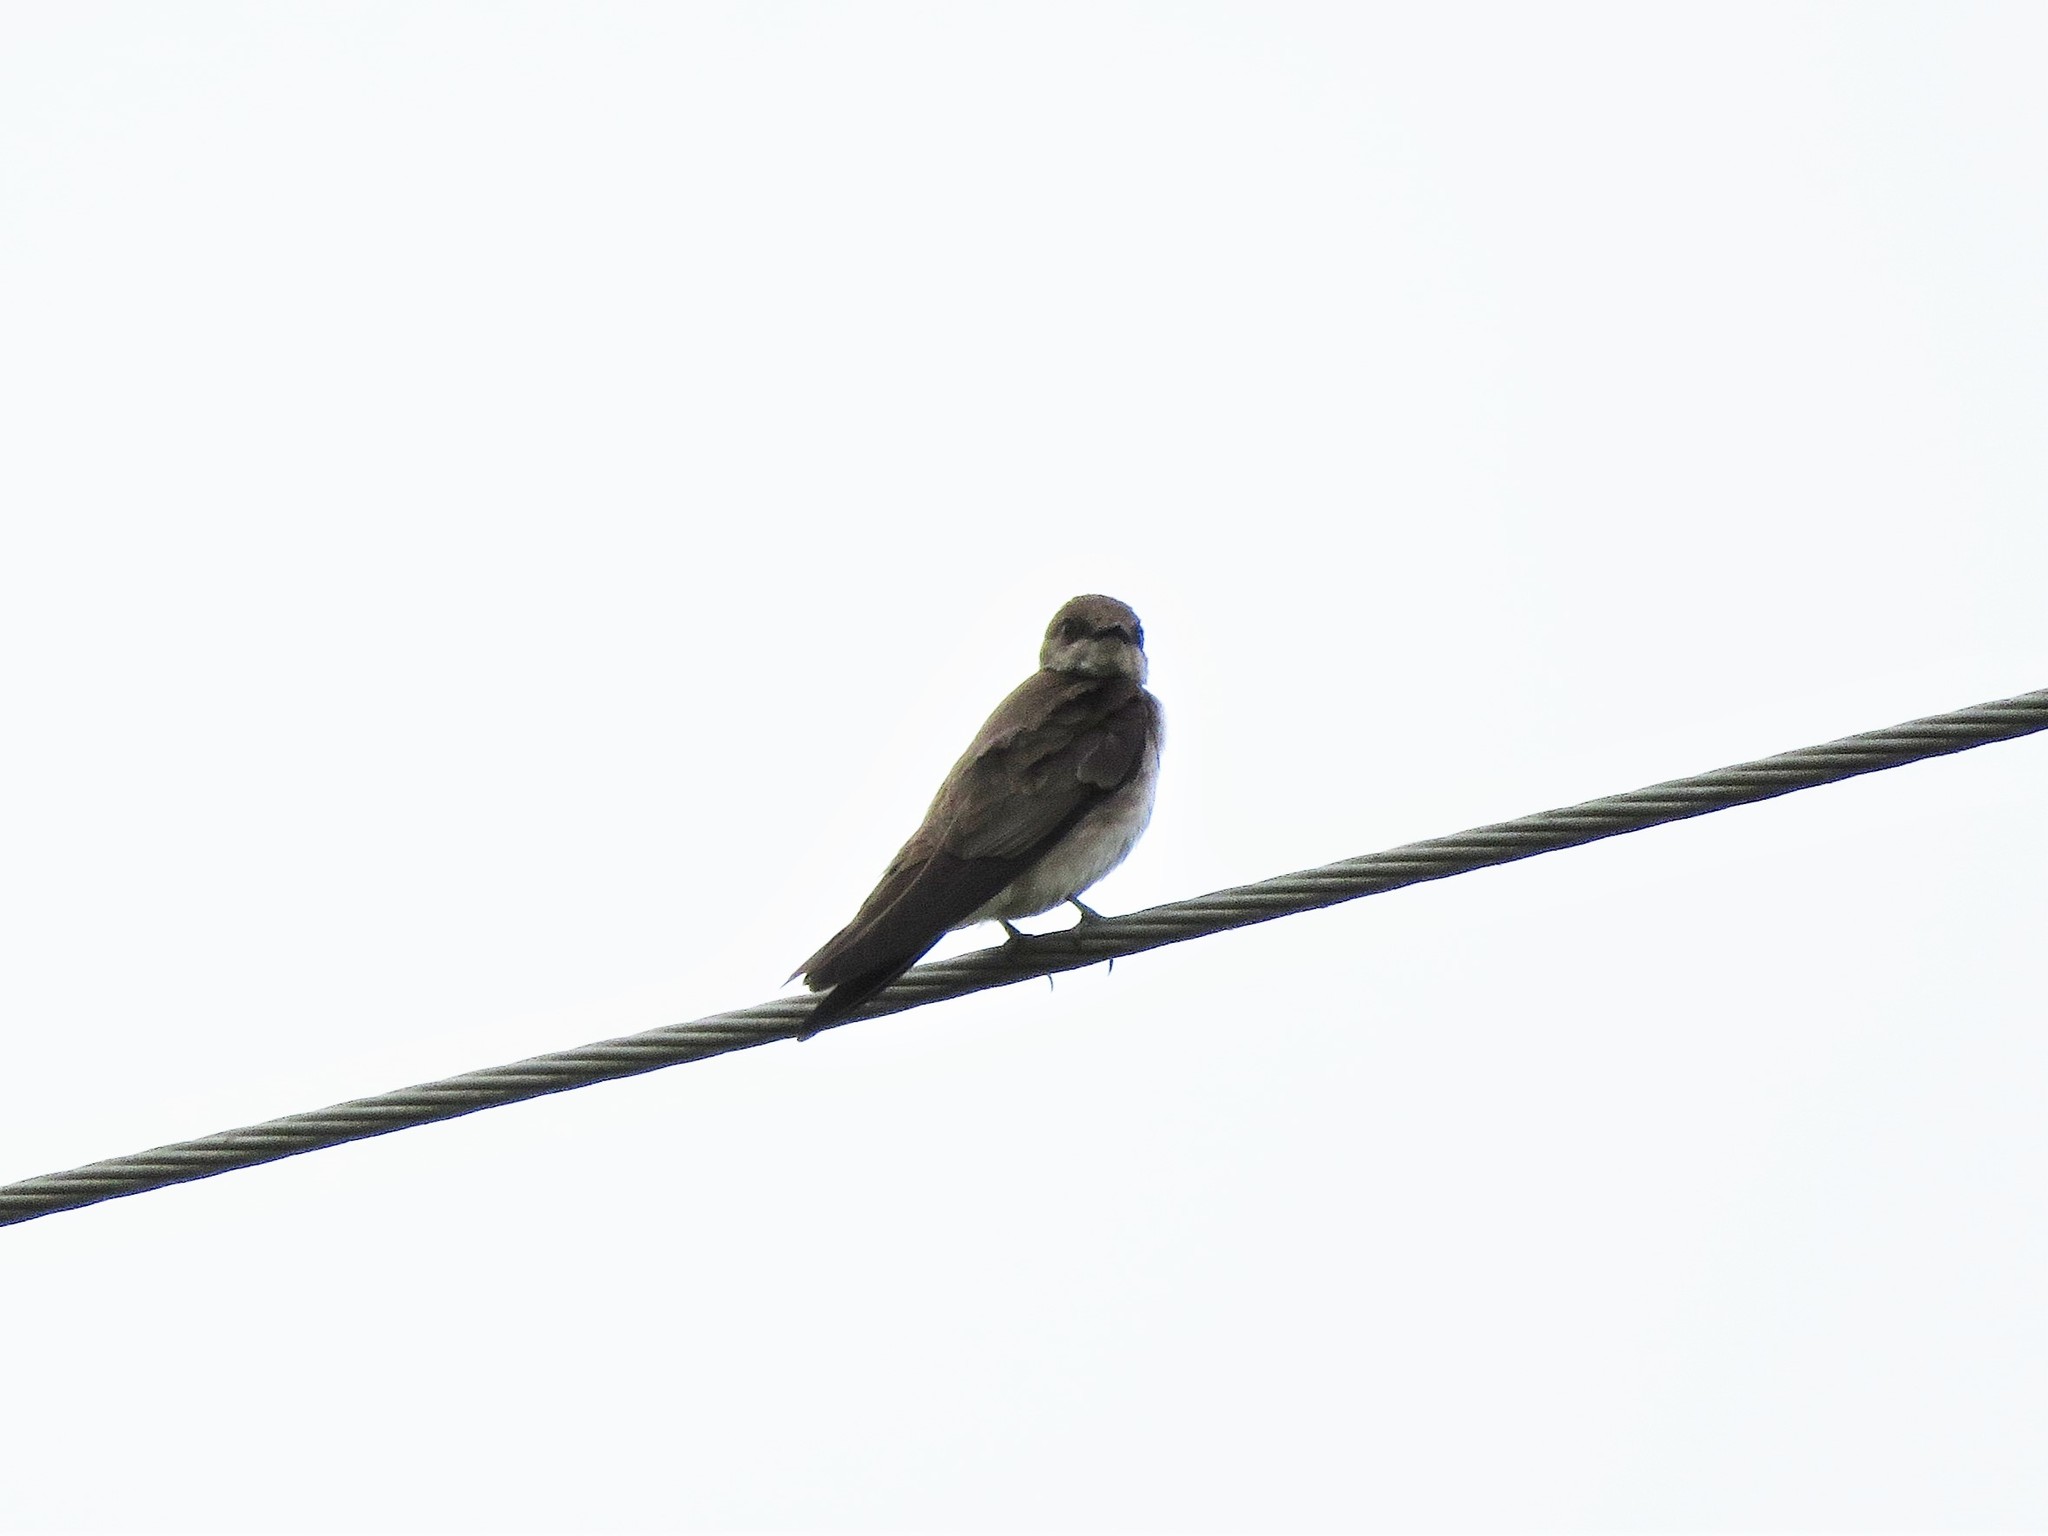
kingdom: Animalia
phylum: Chordata
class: Aves
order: Passeriformes
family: Hirundinidae
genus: Stelgidopteryx
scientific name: Stelgidopteryx serripennis
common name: Northern rough-winged swallow
